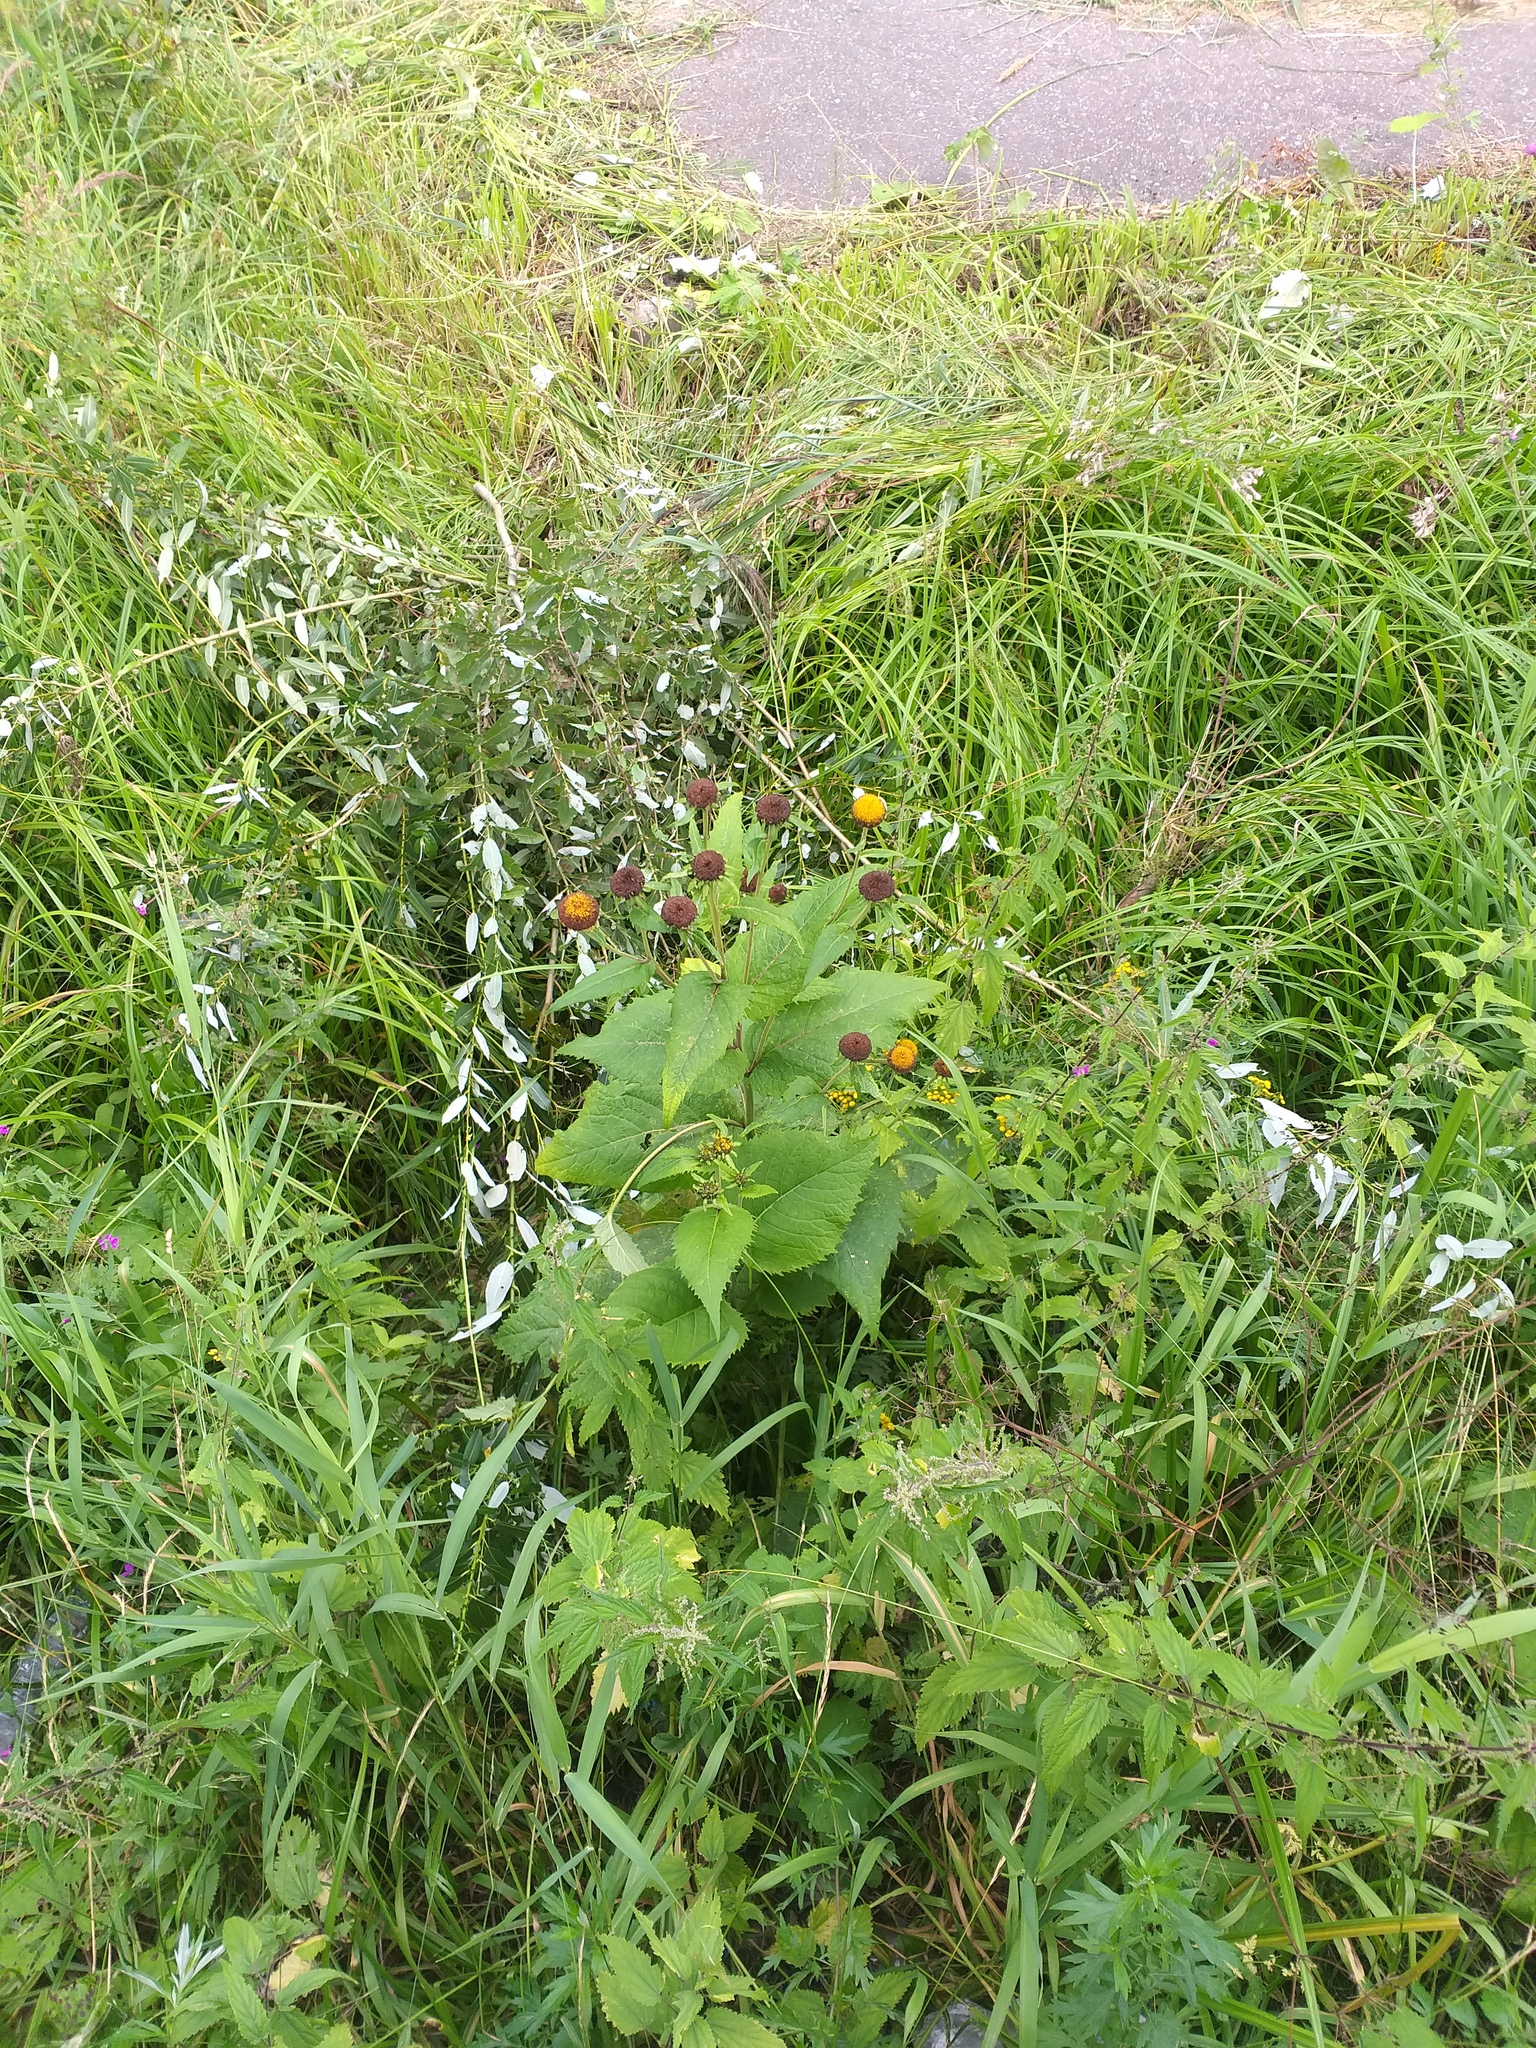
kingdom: Plantae
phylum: Tracheophyta
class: Magnoliopsida
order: Asterales
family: Asteraceae
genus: Telekia
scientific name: Telekia speciosa
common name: Yellow oxeye
